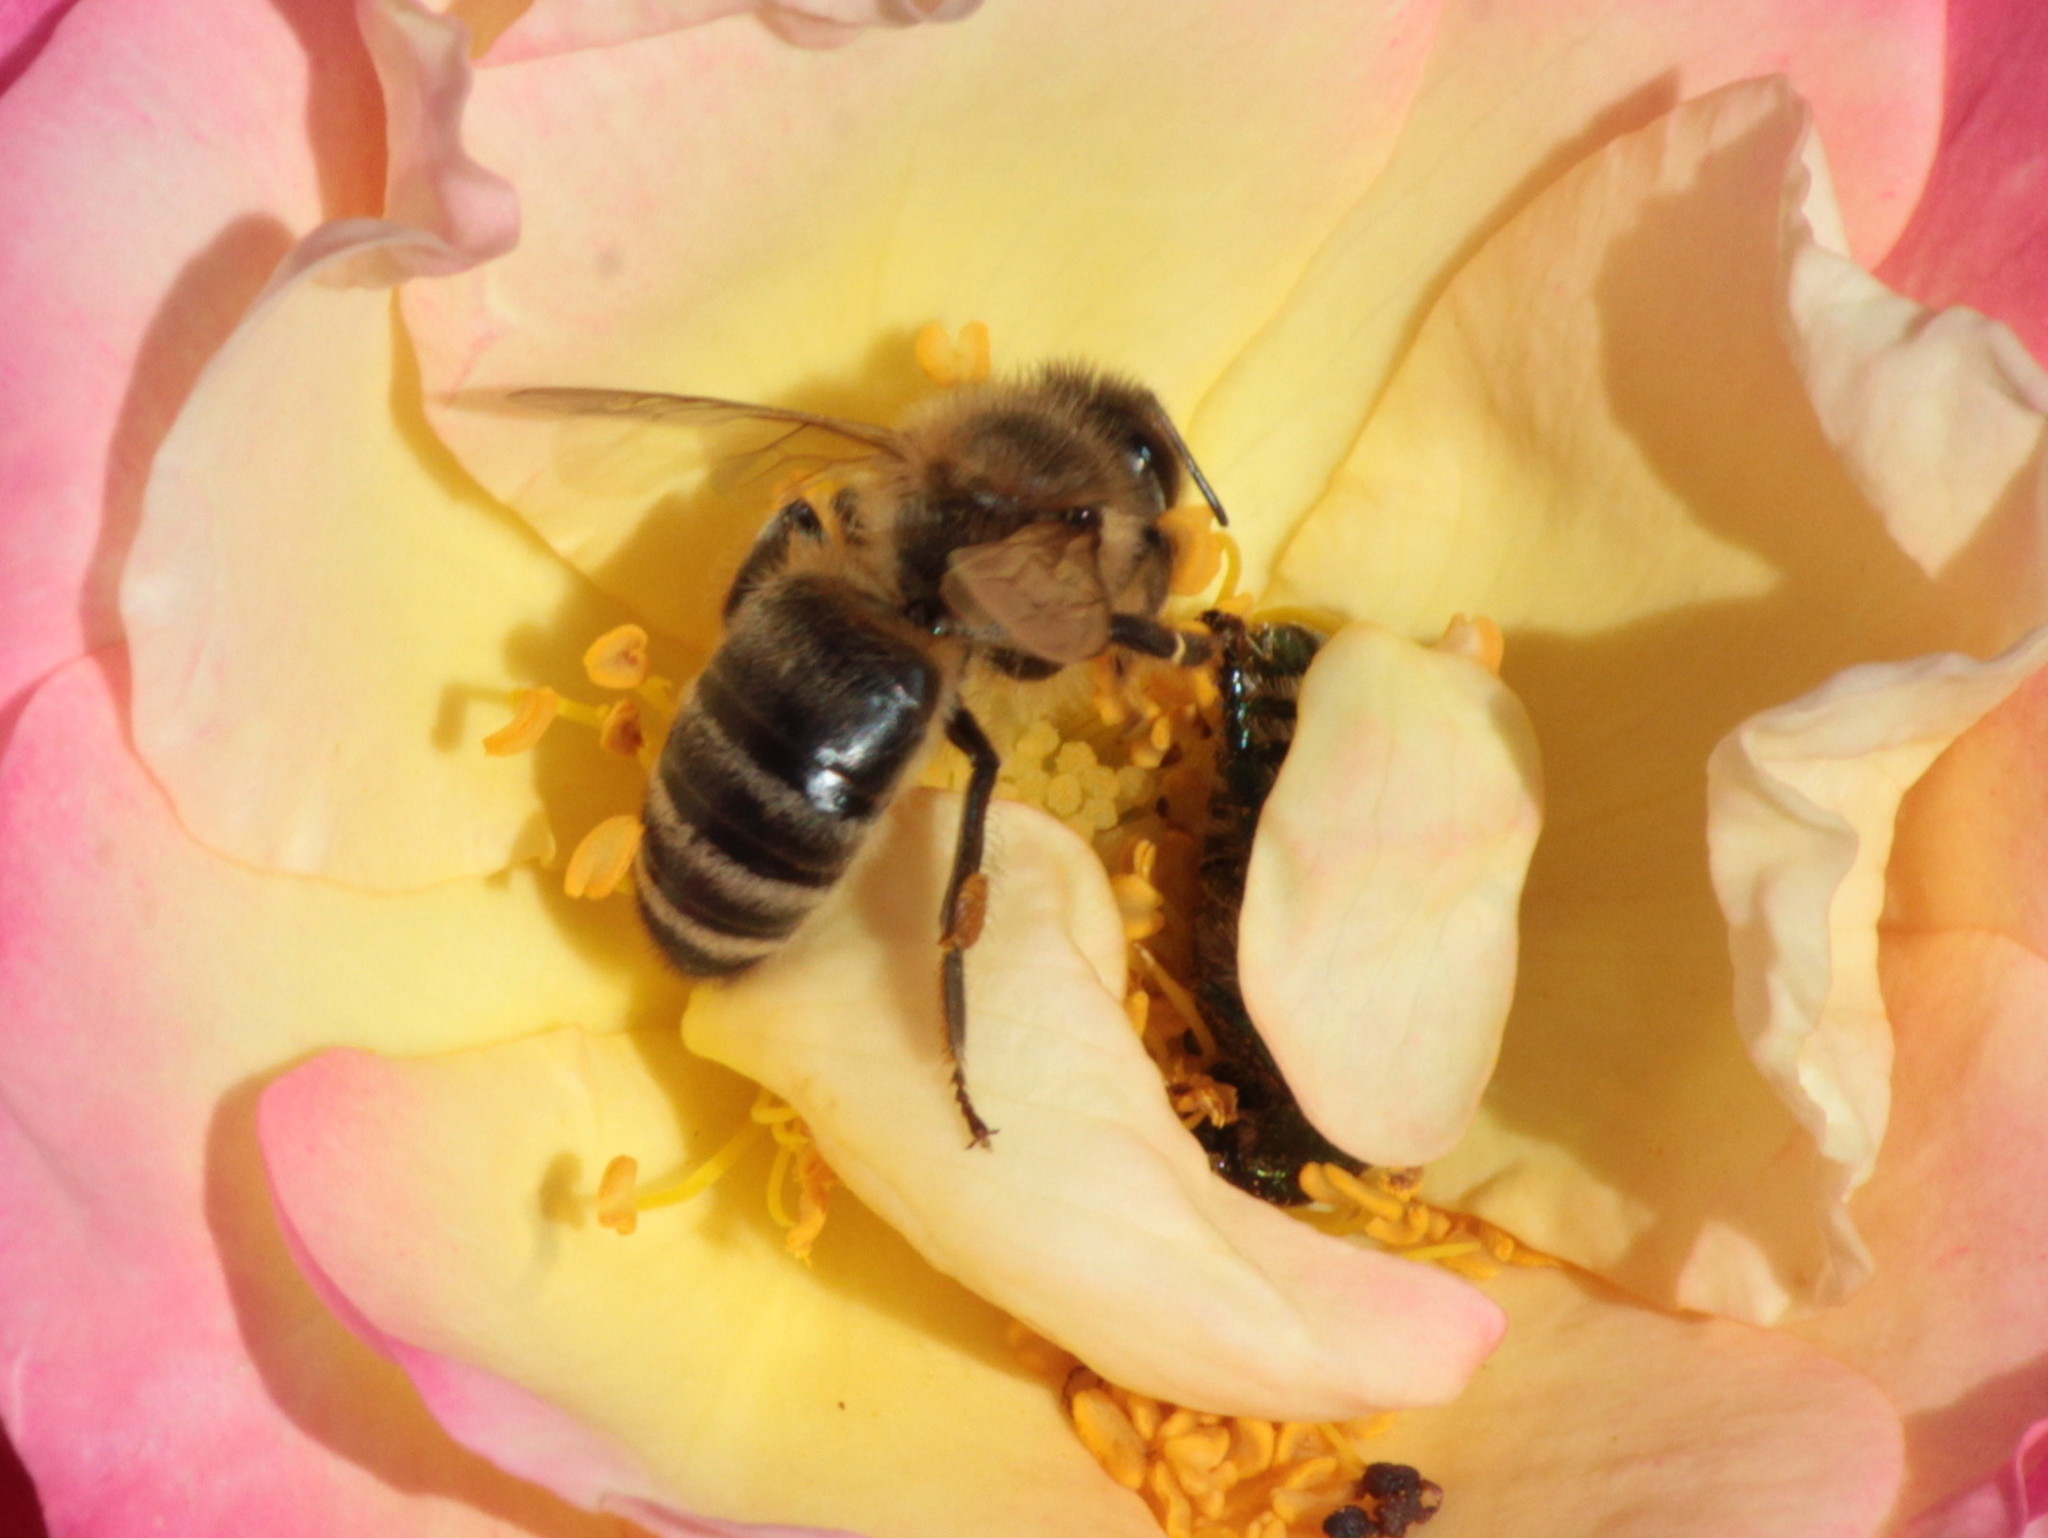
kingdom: Animalia
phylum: Arthropoda
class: Insecta
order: Hymenoptera
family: Apidae
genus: Apis
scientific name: Apis mellifera
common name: Honey bee
